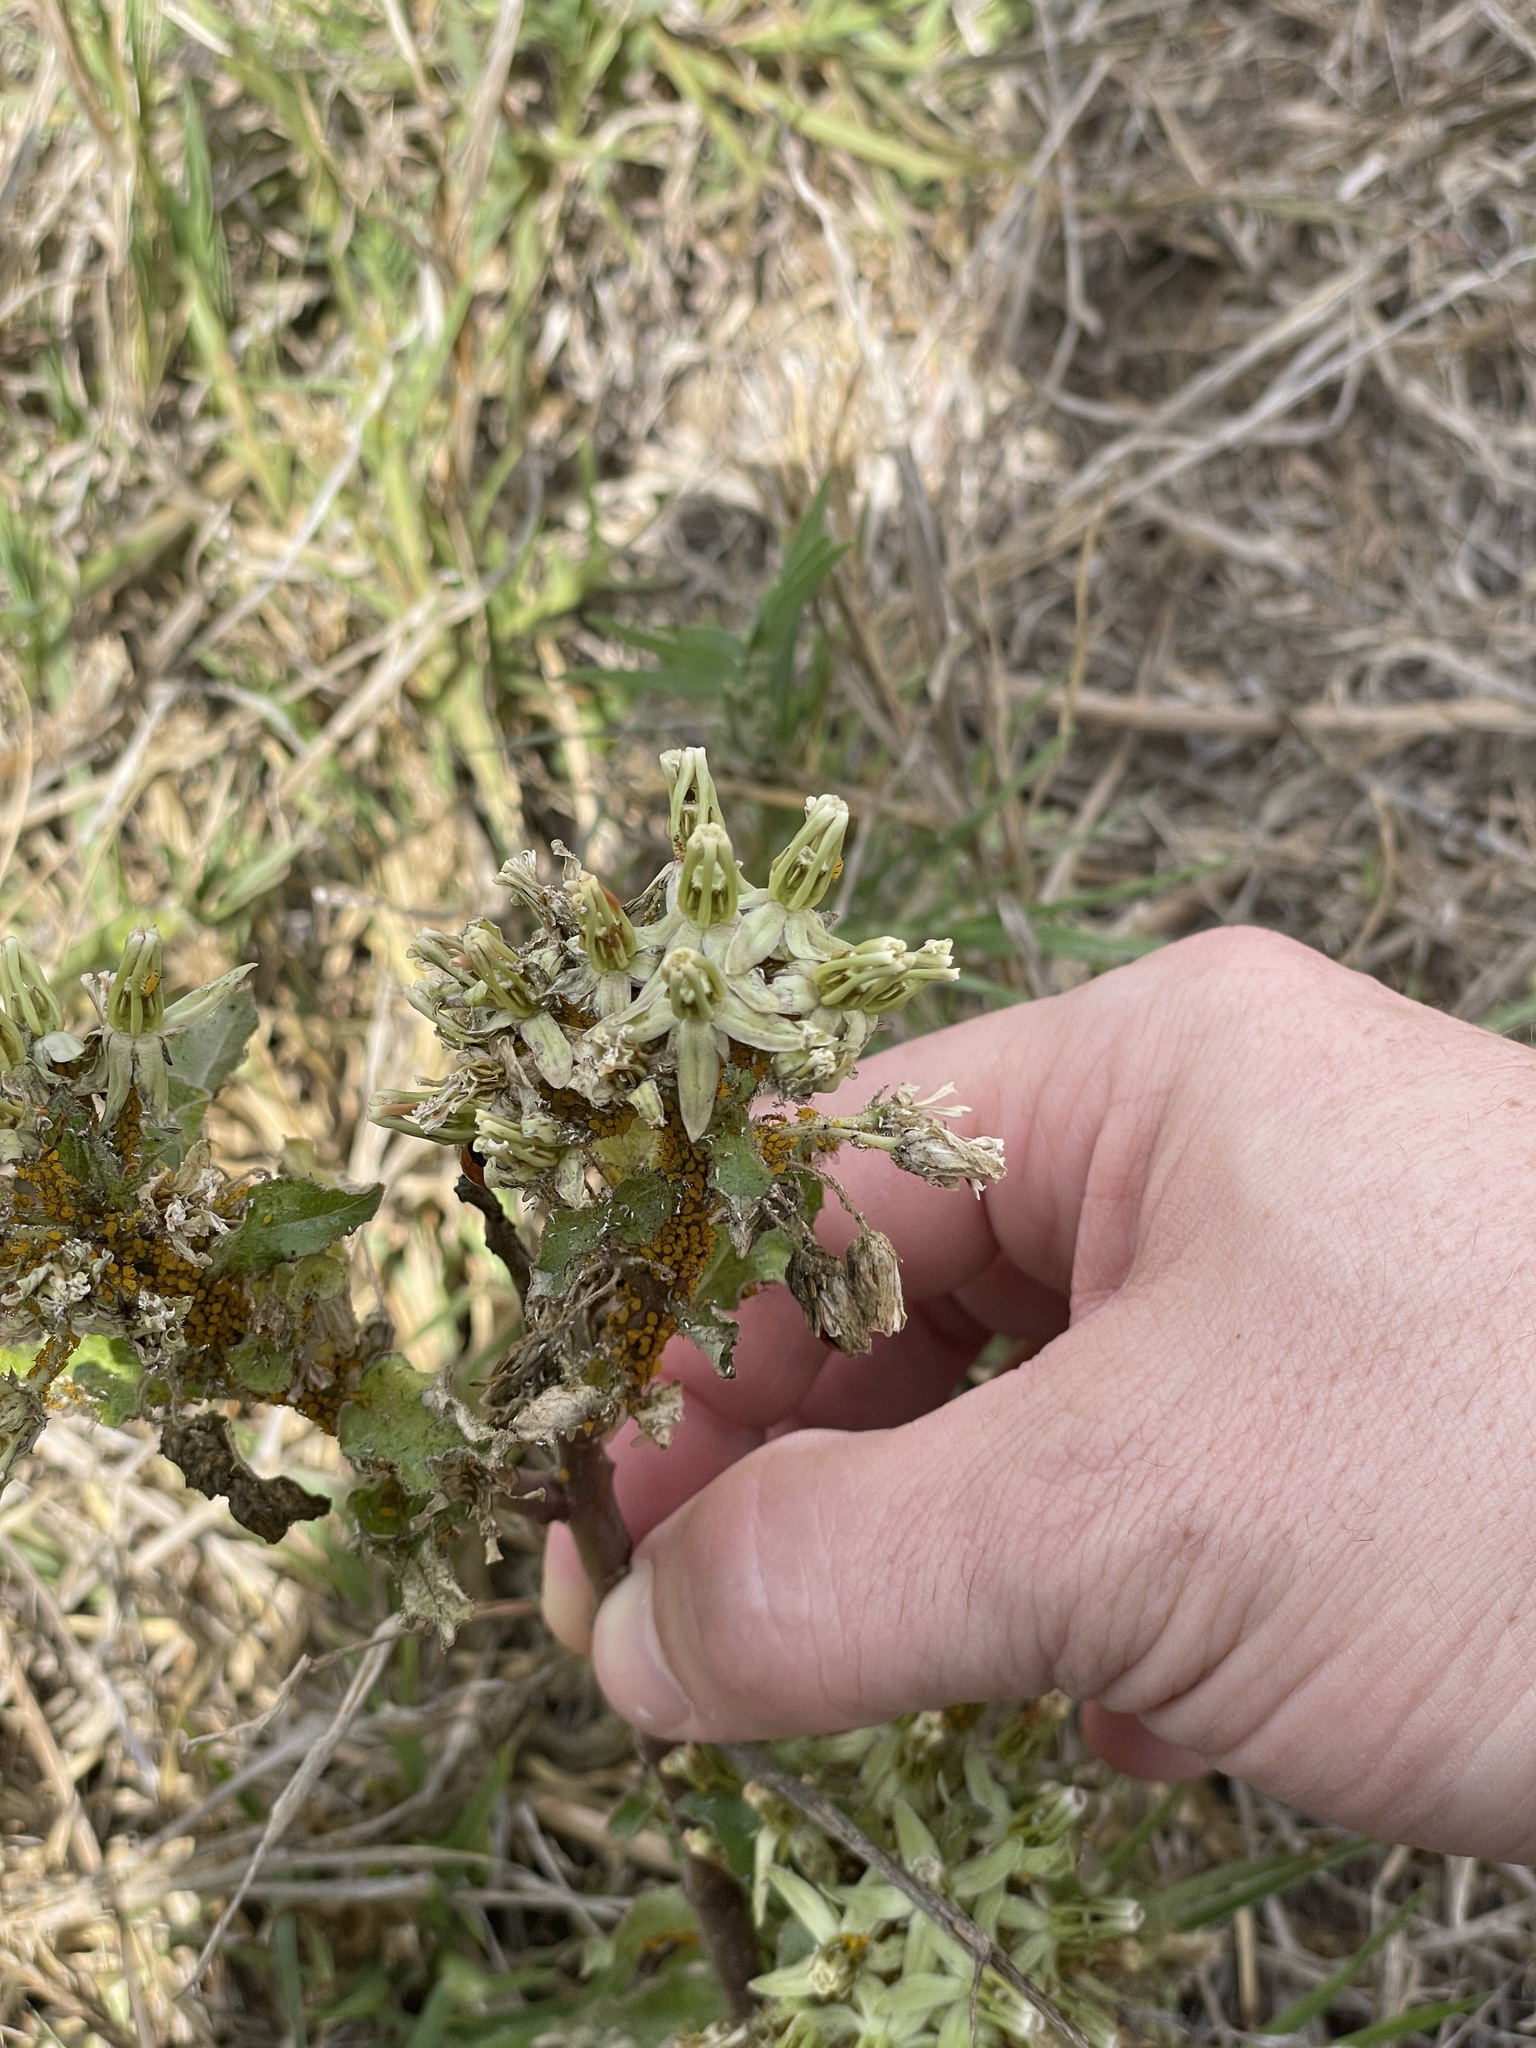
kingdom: Plantae
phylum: Tracheophyta
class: Magnoliopsida
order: Gentianales
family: Apocynaceae
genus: Asclepias
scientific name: Asclepias oenotheroides
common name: Zizotes milkweed
